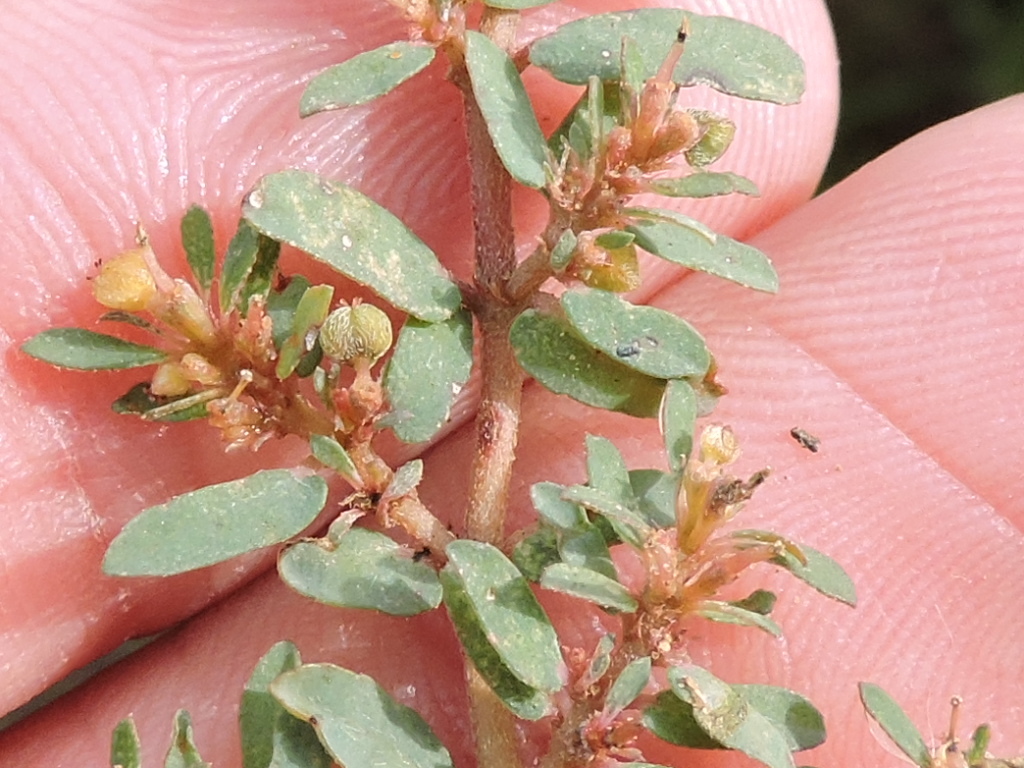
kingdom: Plantae
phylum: Tracheophyta
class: Magnoliopsida
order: Malpighiales
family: Euphorbiaceae
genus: Euphorbia
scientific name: Euphorbia maculata
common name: Spotted spurge
